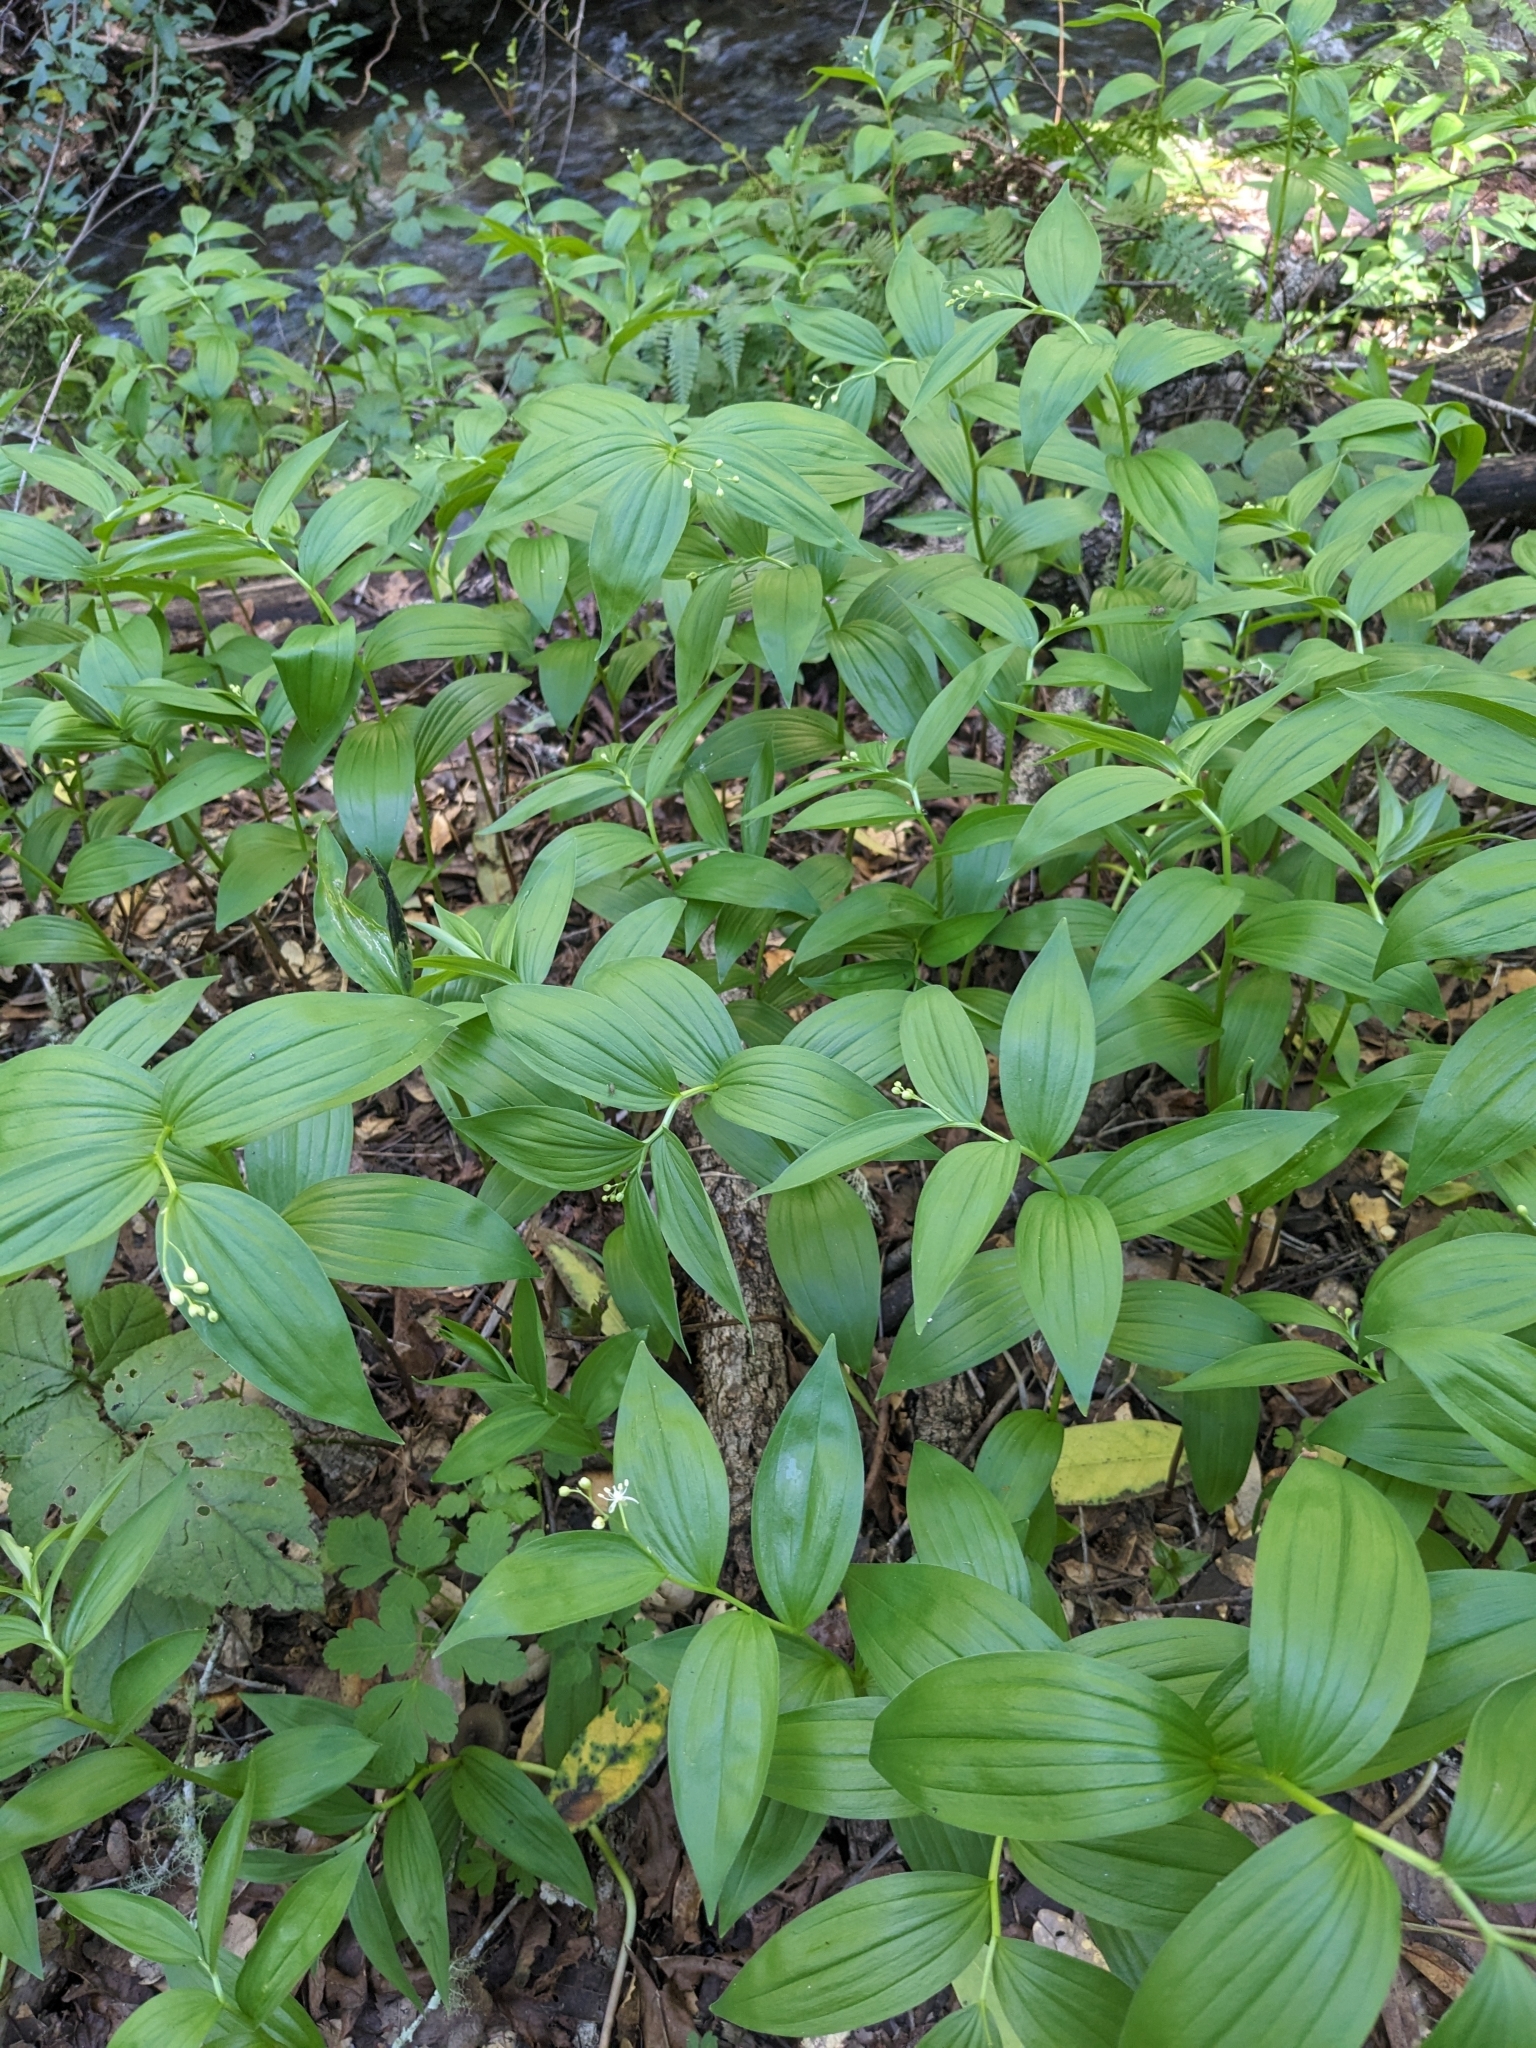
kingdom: Plantae
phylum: Tracheophyta
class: Liliopsida
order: Asparagales
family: Asparagaceae
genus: Maianthemum
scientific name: Maianthemum stellatum
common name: Little false solomon's seal
